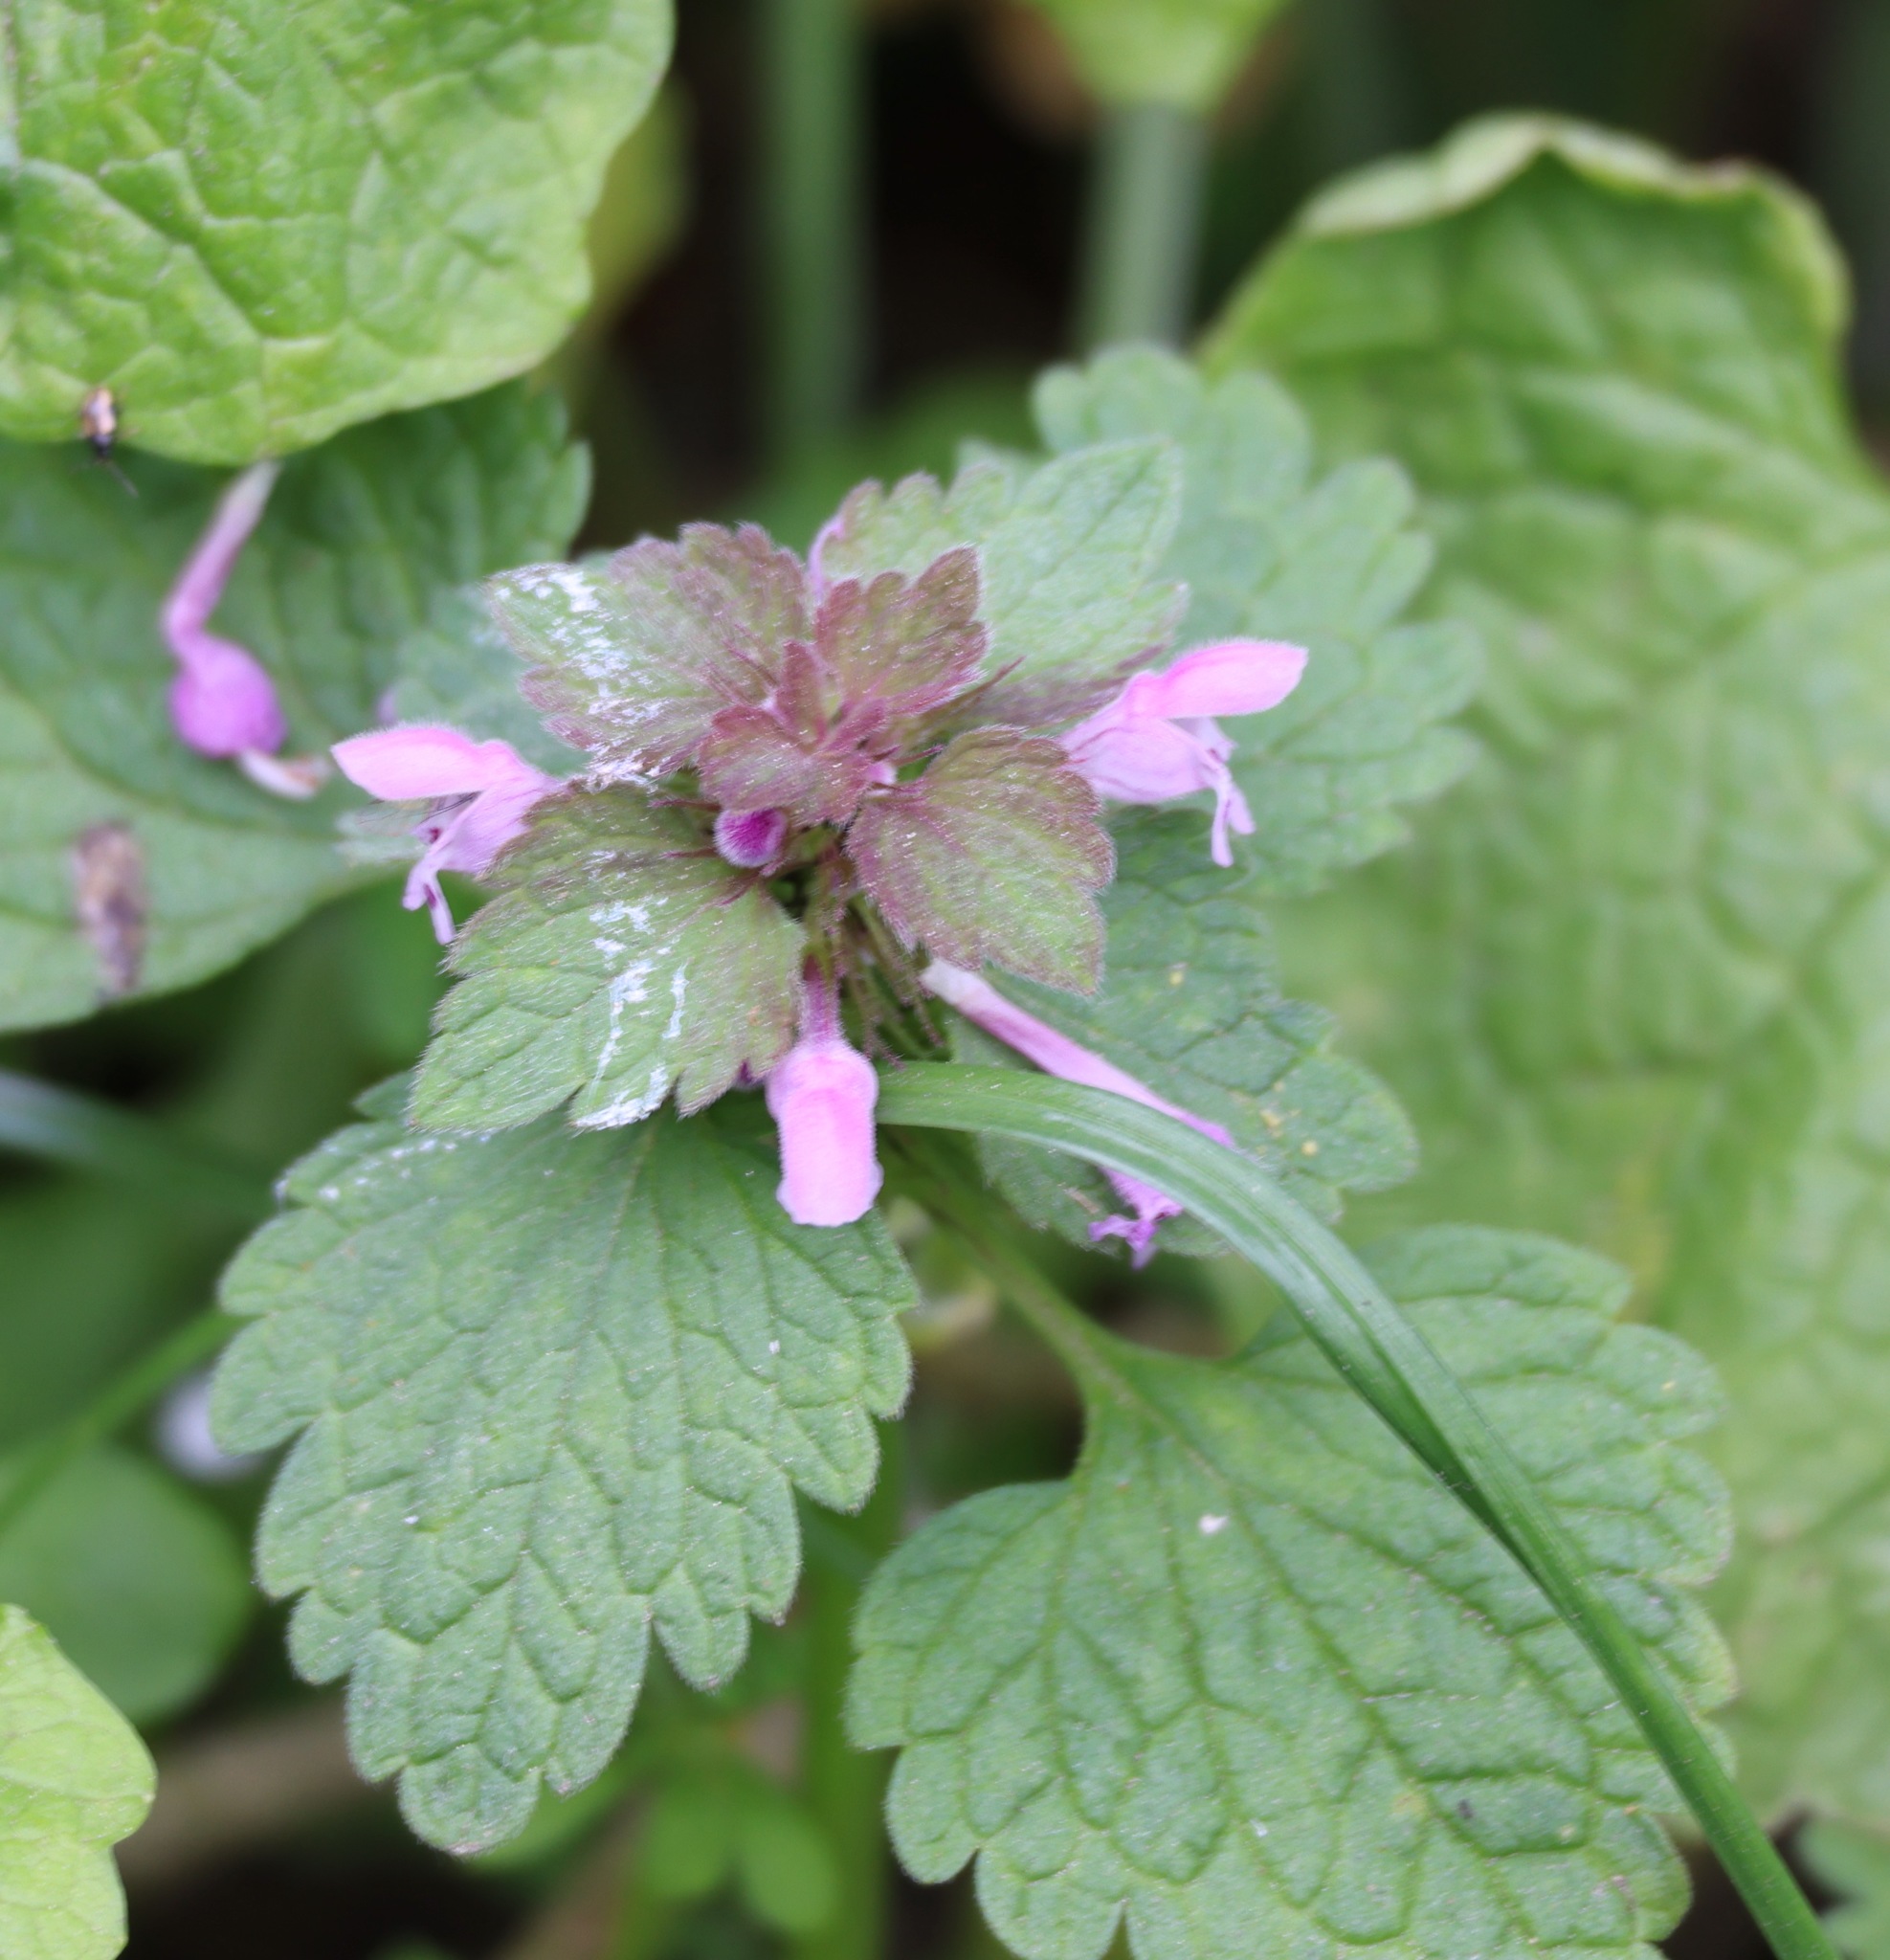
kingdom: Plantae
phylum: Tracheophyta
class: Magnoliopsida
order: Lamiales
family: Lamiaceae
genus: Lamium
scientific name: Lamium purpureum
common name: Red dead-nettle
